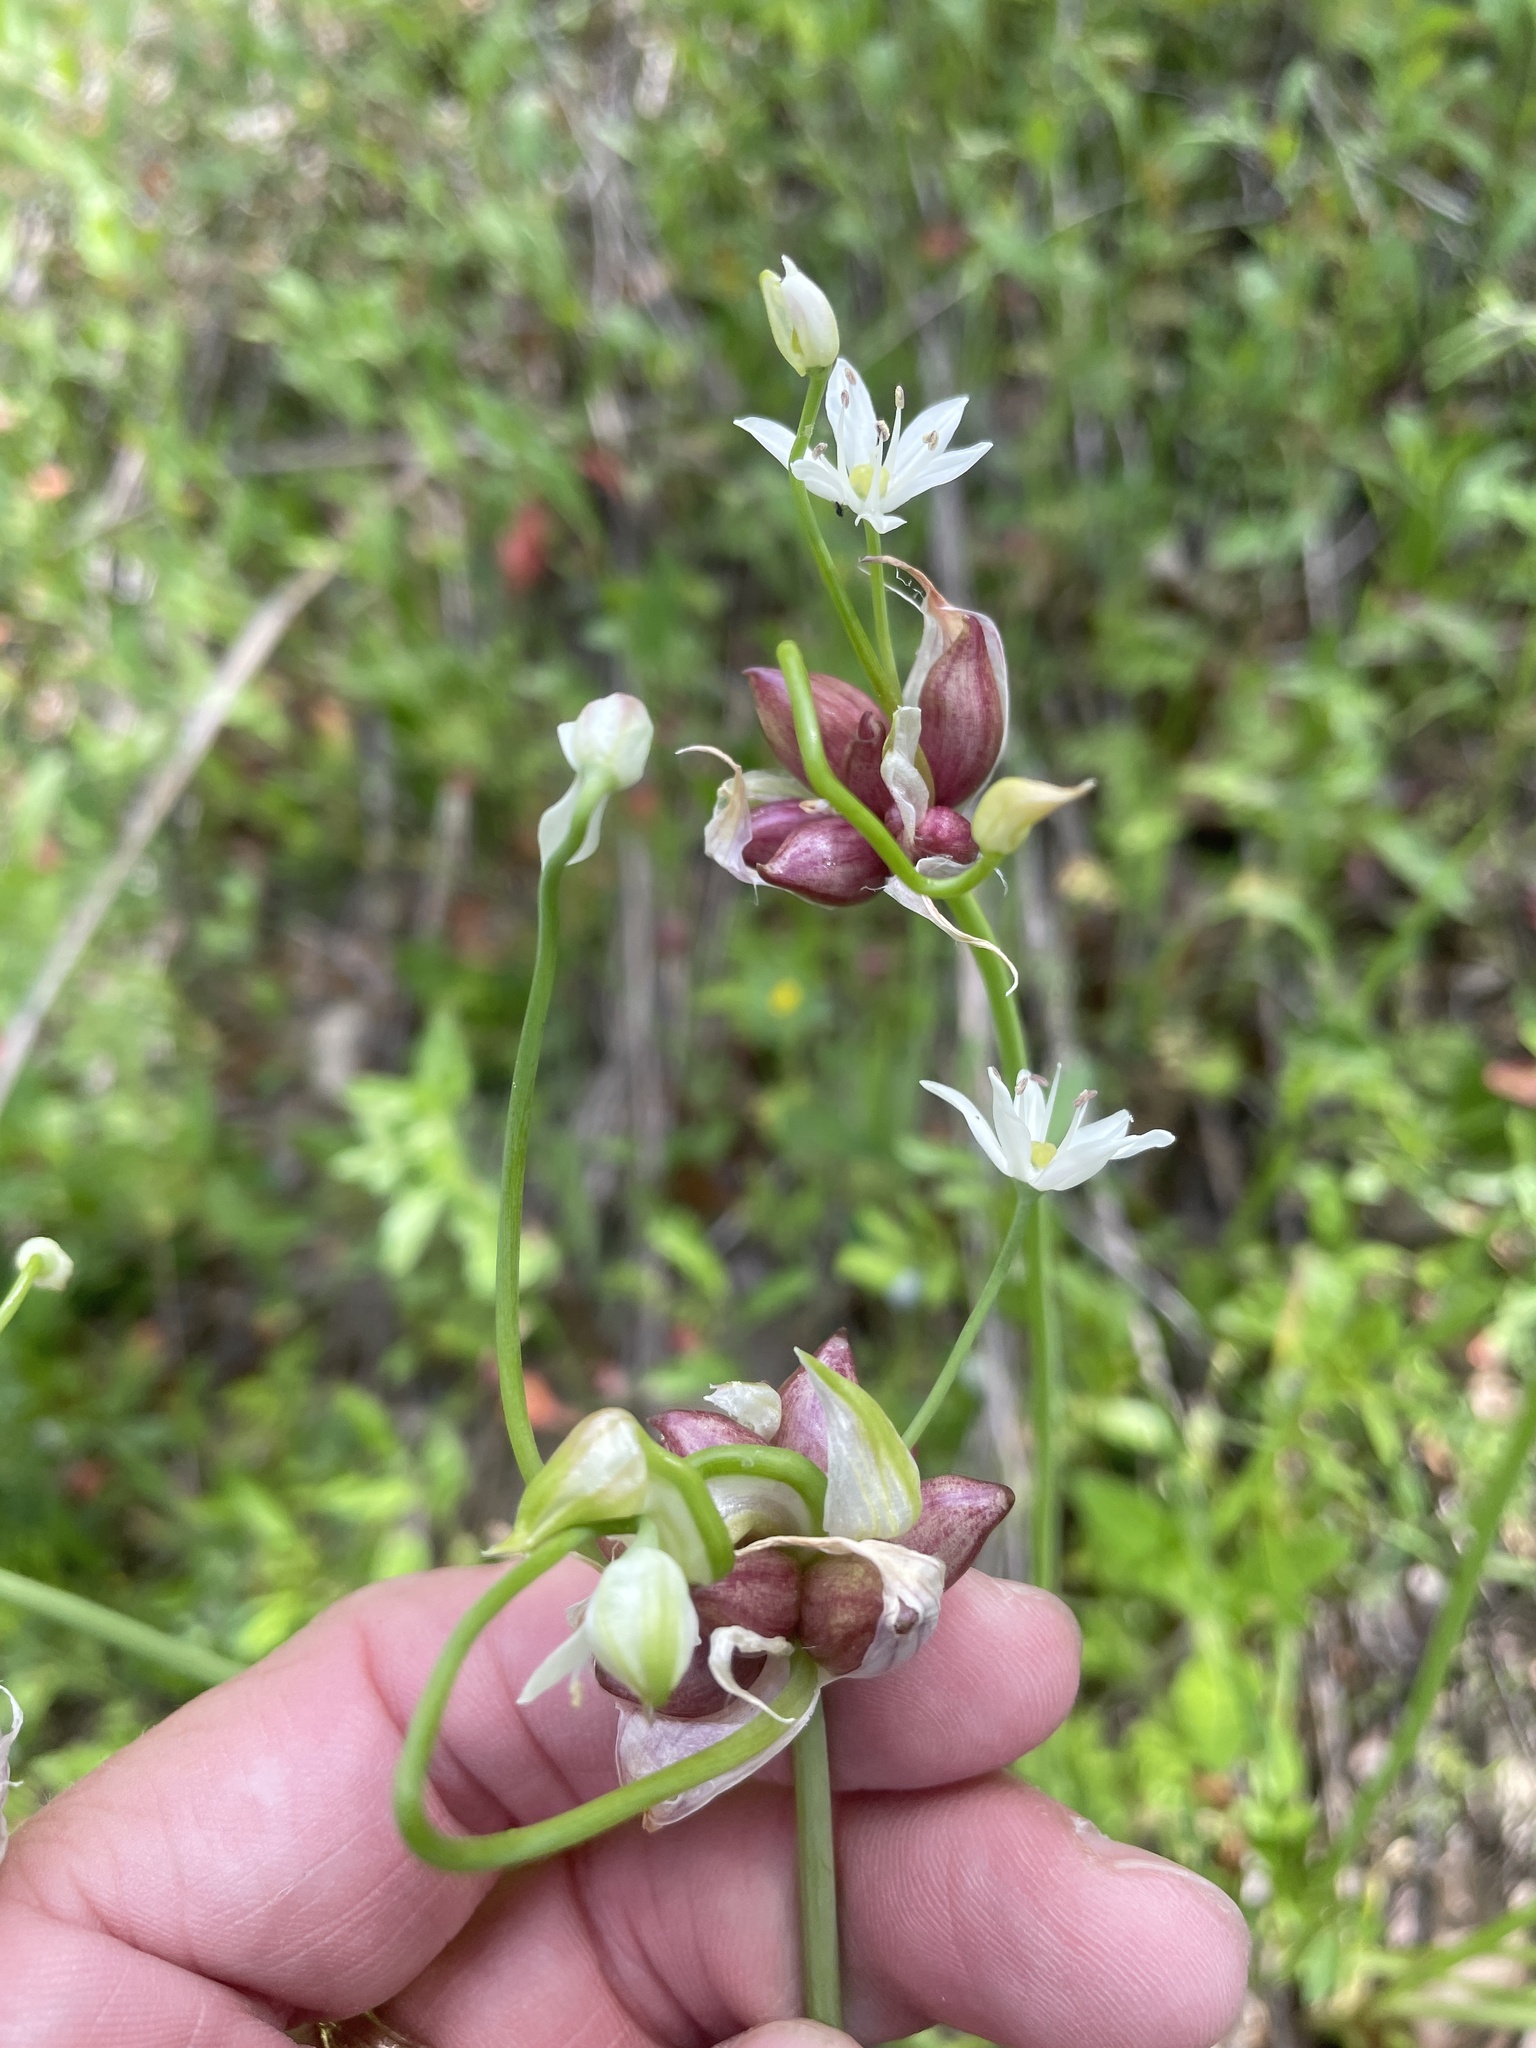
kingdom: Plantae
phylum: Tracheophyta
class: Liliopsida
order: Asparagales
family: Amaryllidaceae
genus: Allium
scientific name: Allium canadense
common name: Meadow garlic
